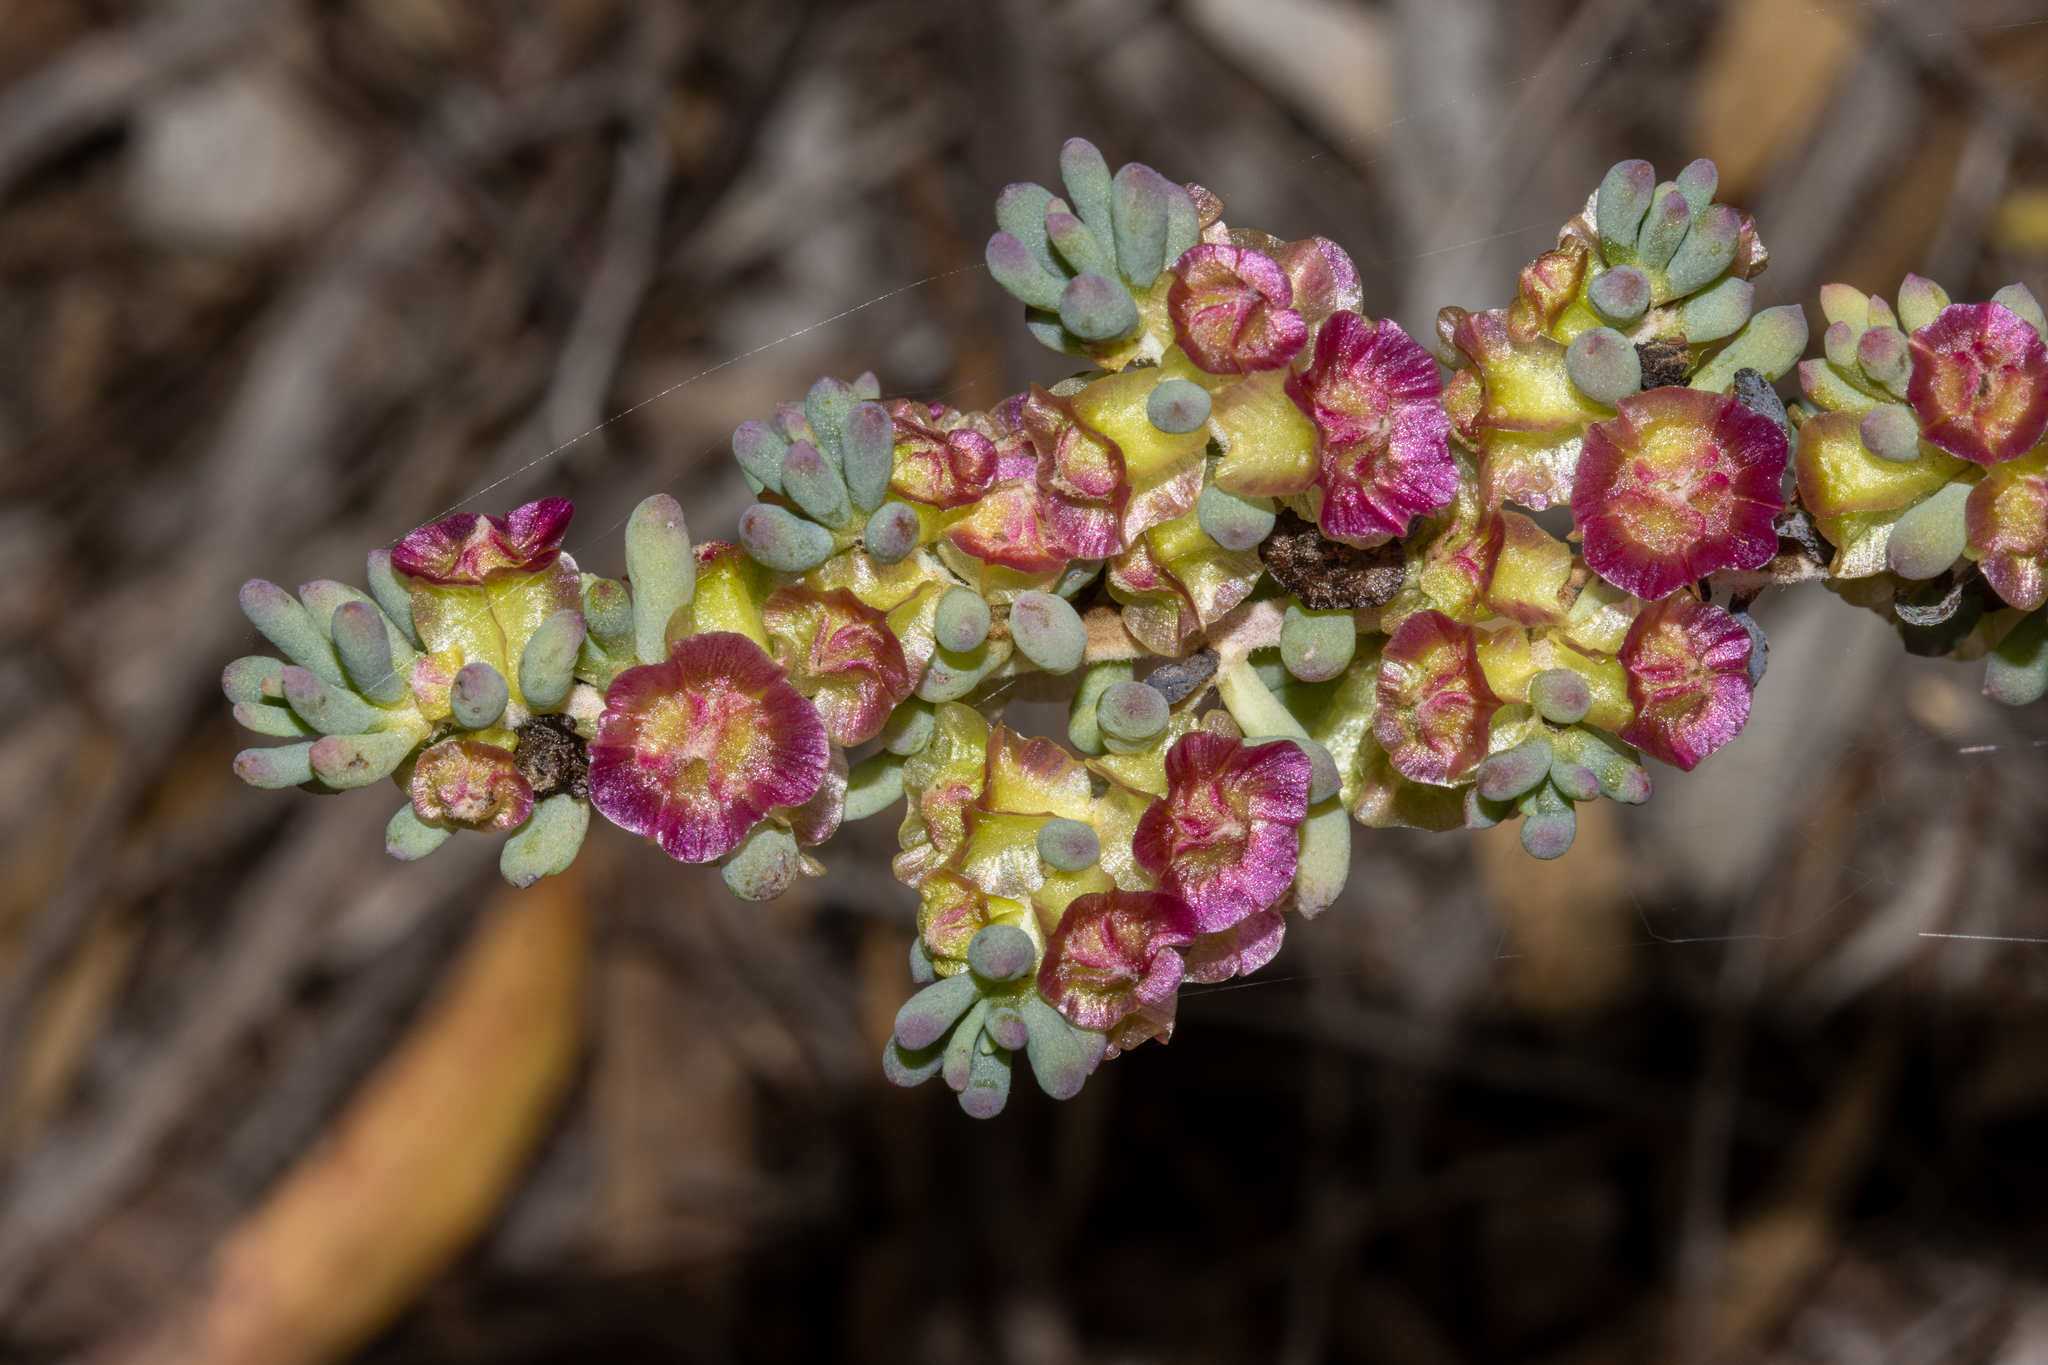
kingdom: Plantae
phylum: Tracheophyta
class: Magnoliopsida
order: Caryophyllales
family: Amaranthaceae
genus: Maireana
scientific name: Maireana erioclada
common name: Rosy bluebush
